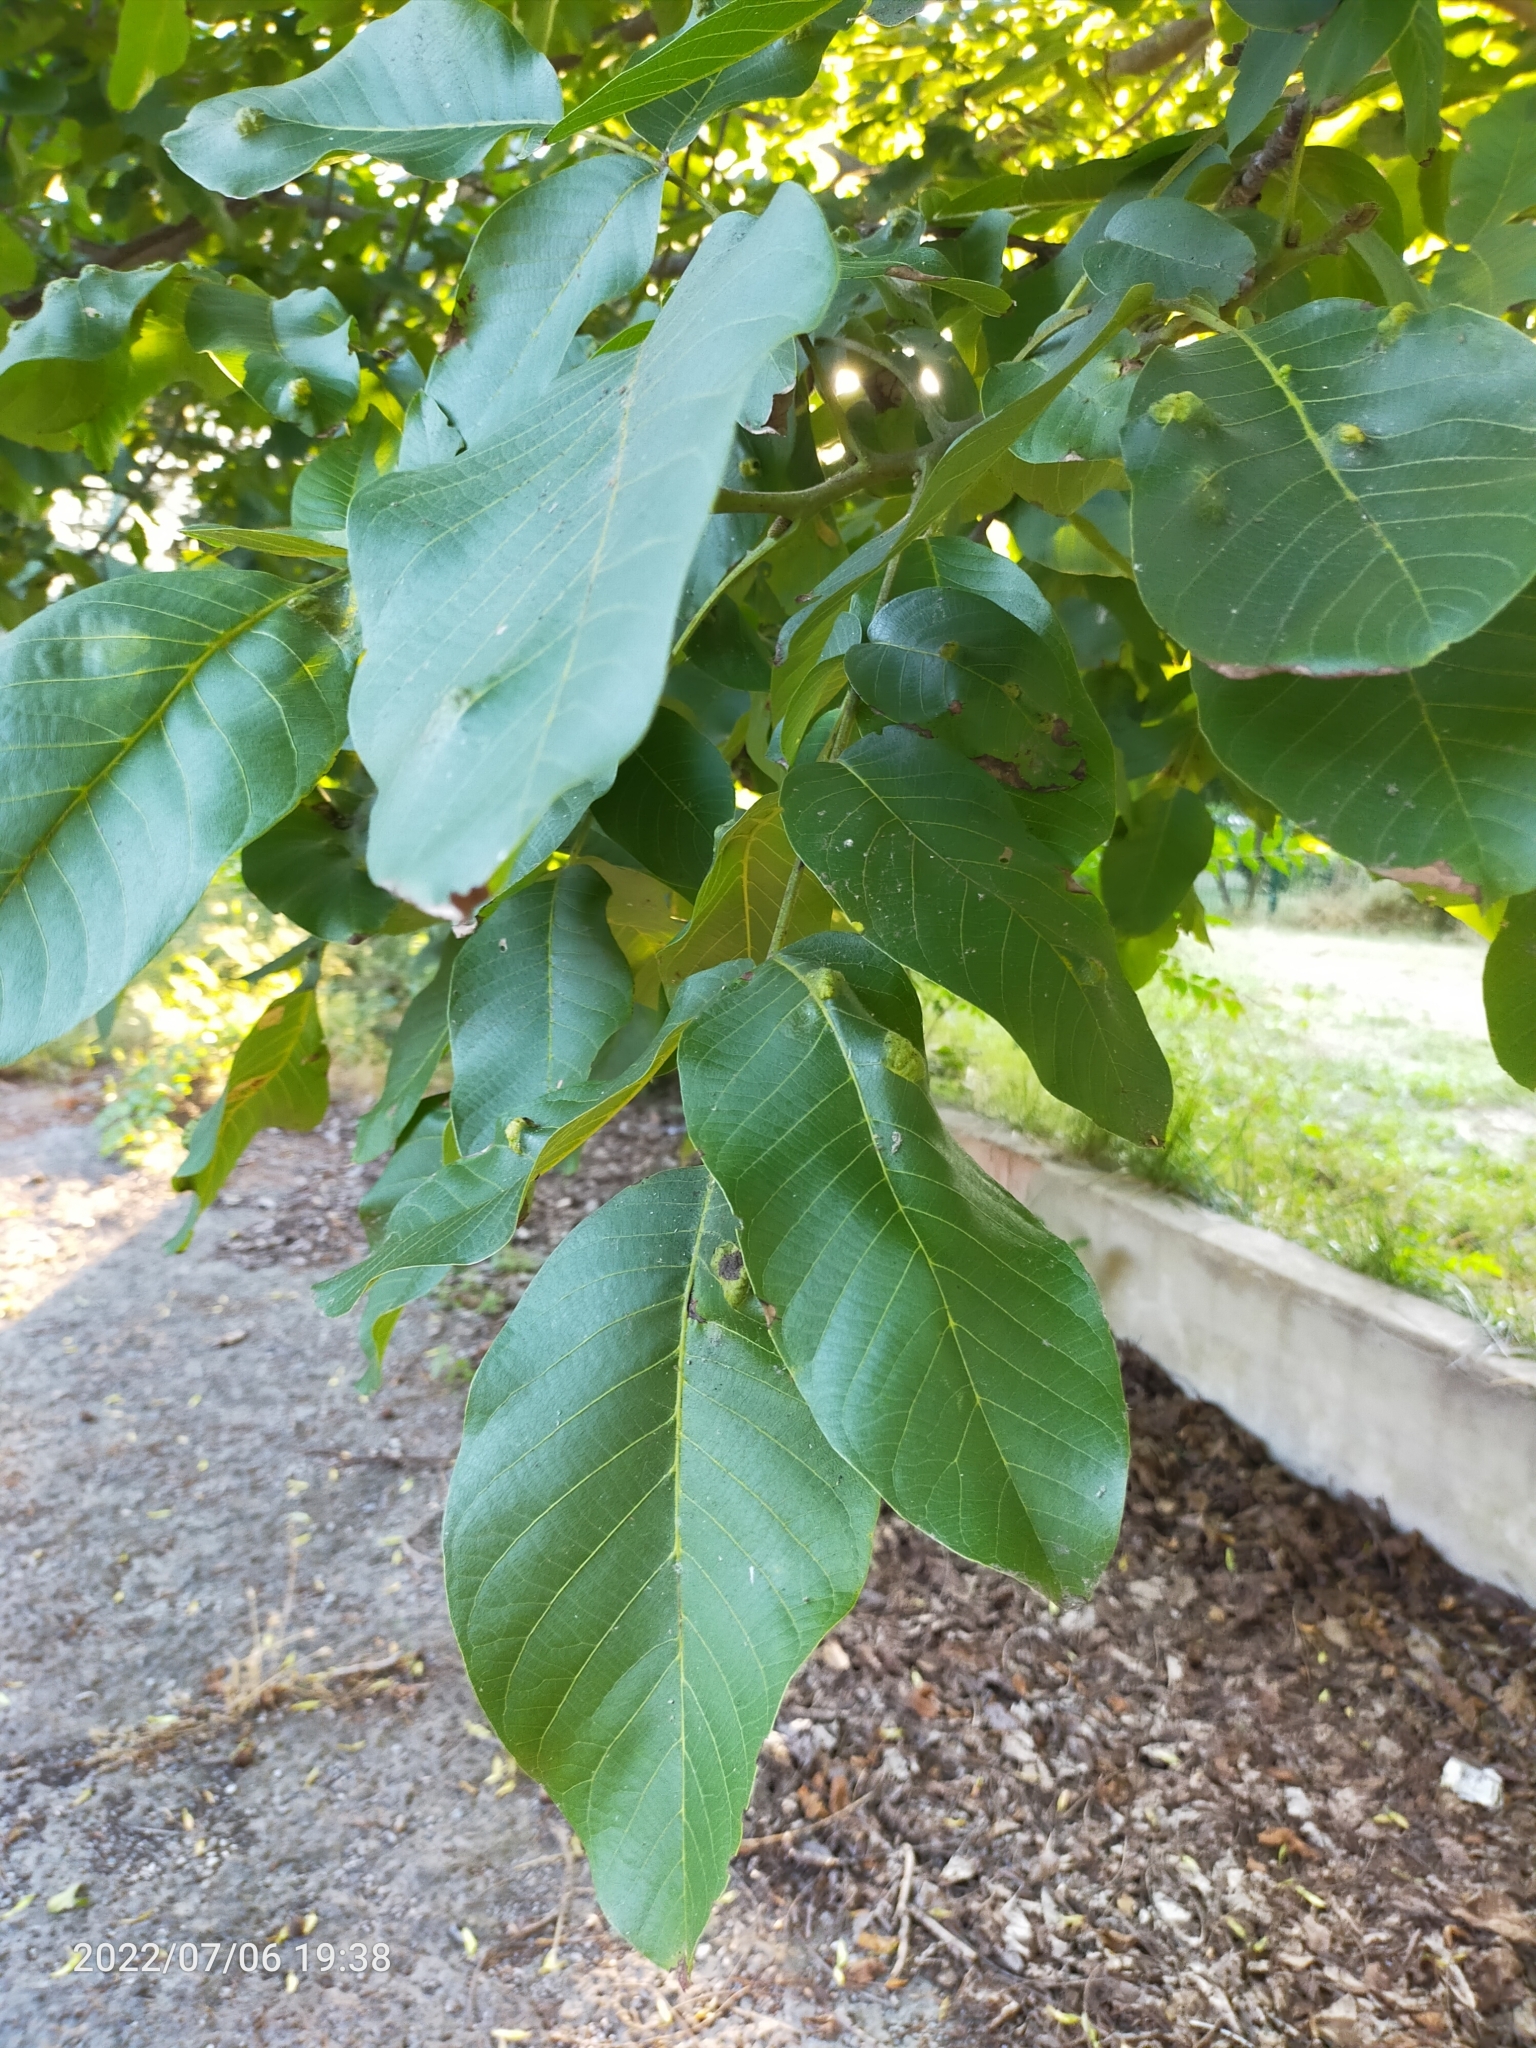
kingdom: Plantae
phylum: Tracheophyta
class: Magnoliopsida
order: Fagales
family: Juglandaceae
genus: Juglans
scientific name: Juglans regia
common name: Walnut
